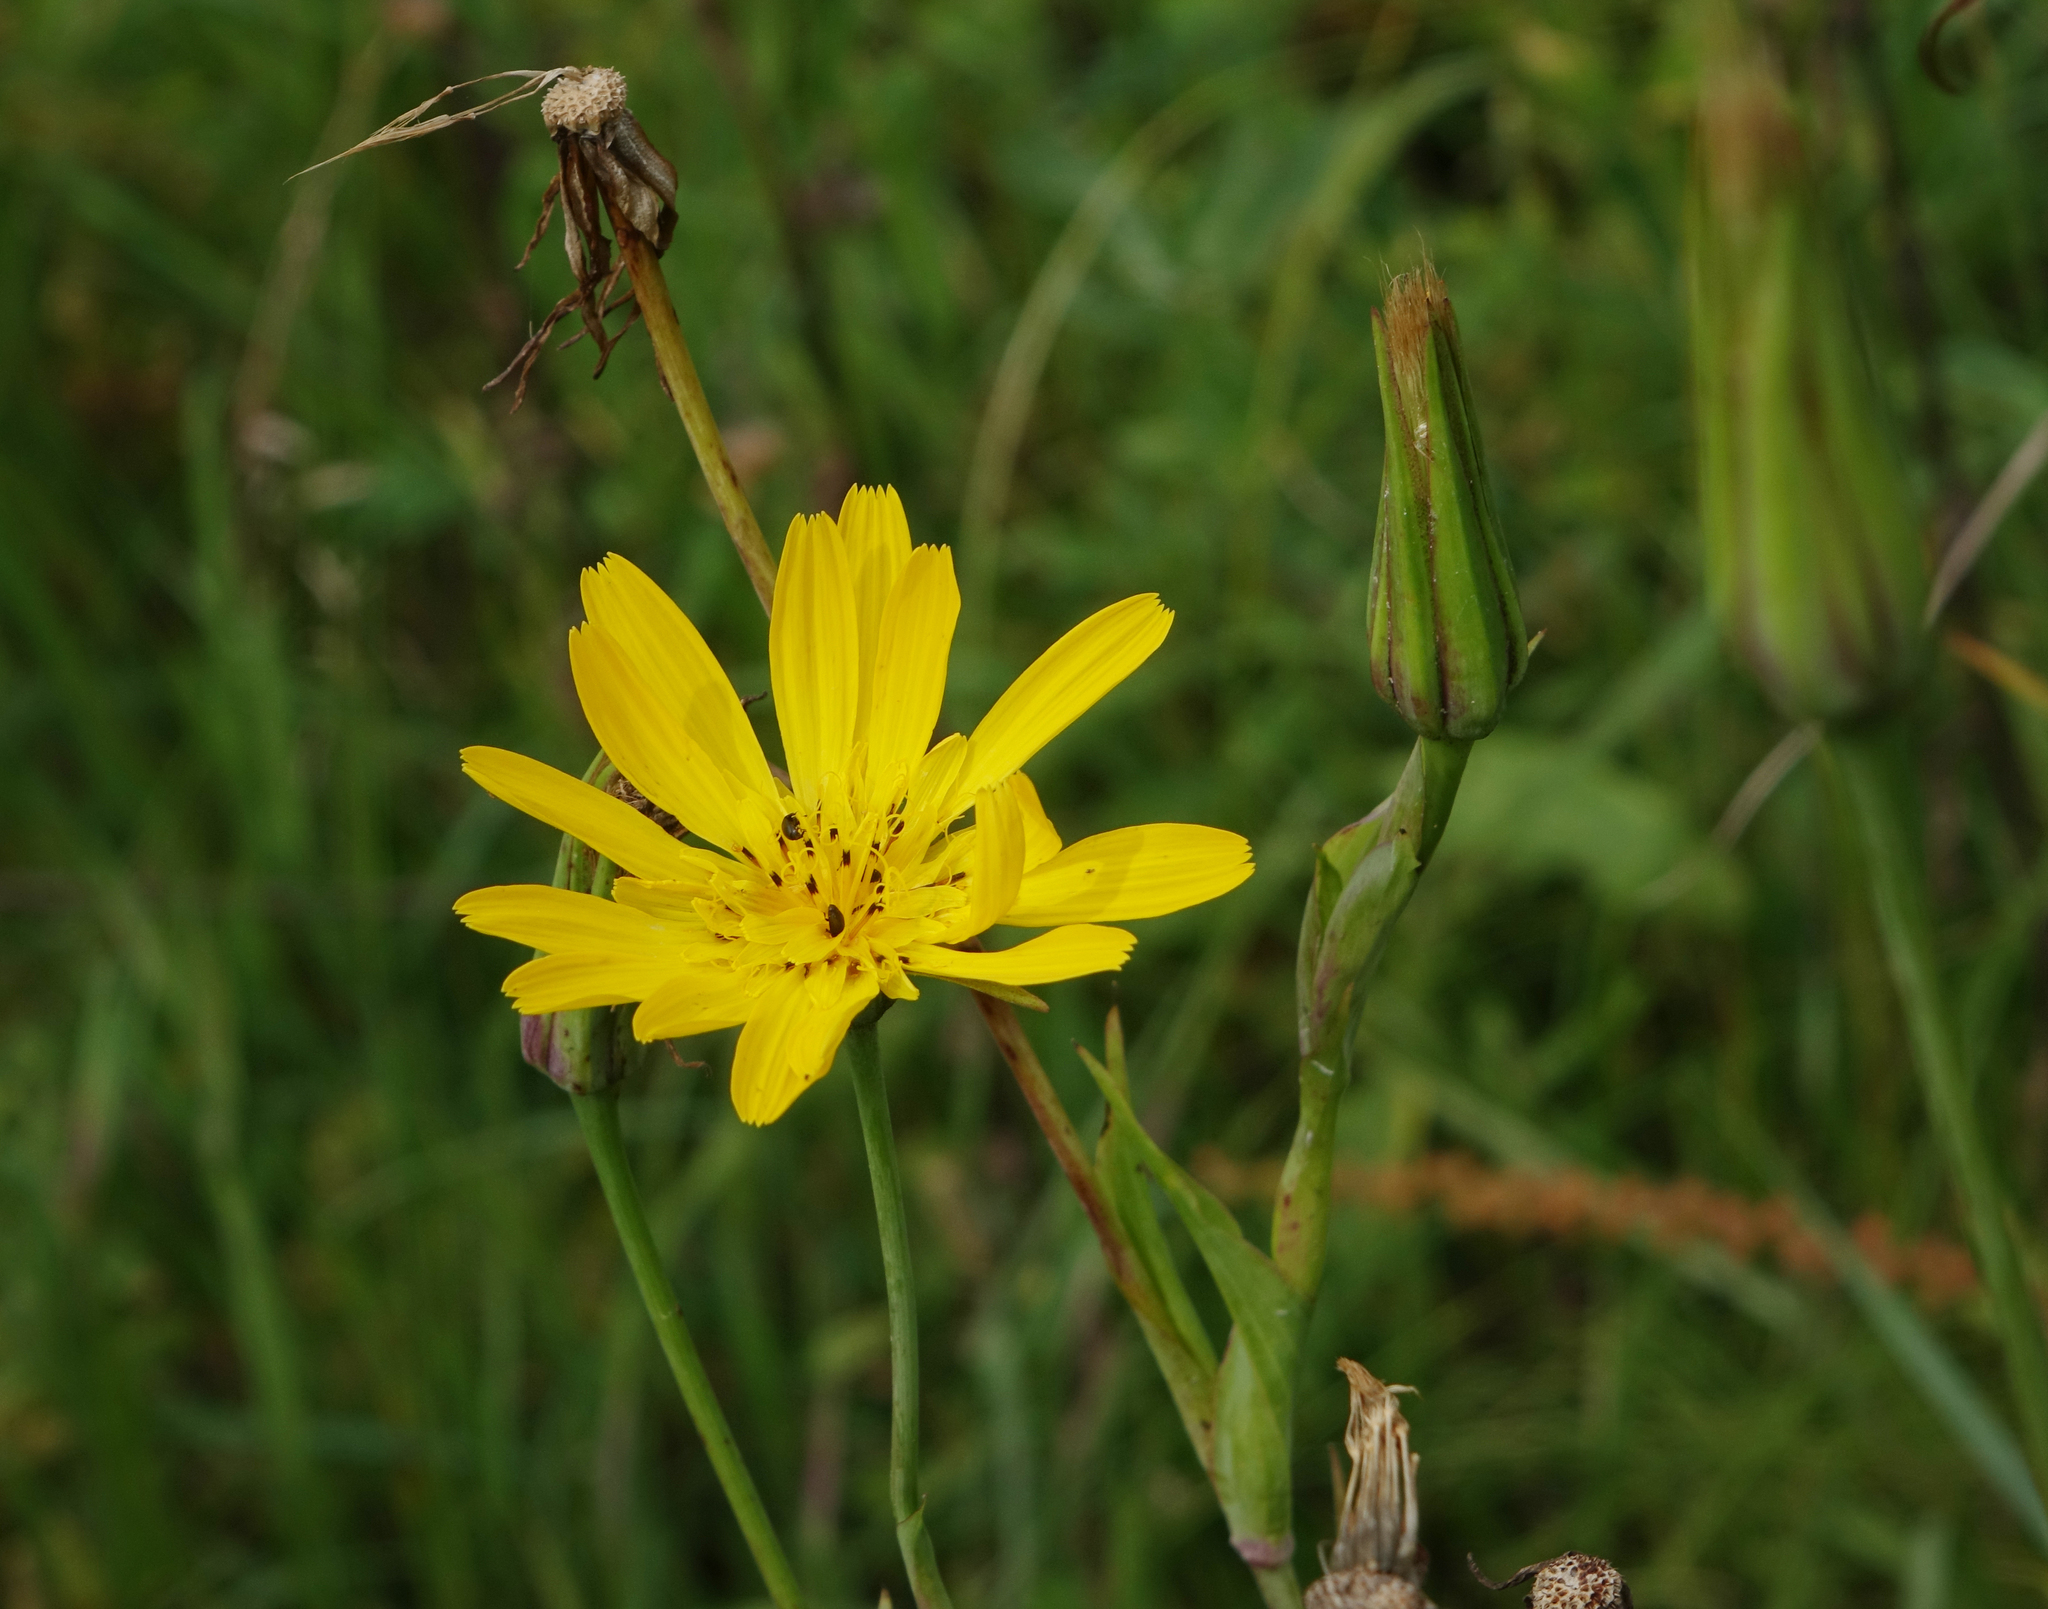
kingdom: Plantae
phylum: Tracheophyta
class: Magnoliopsida
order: Asterales
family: Asteraceae
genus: Tragopogon
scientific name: Tragopogon orientalis
